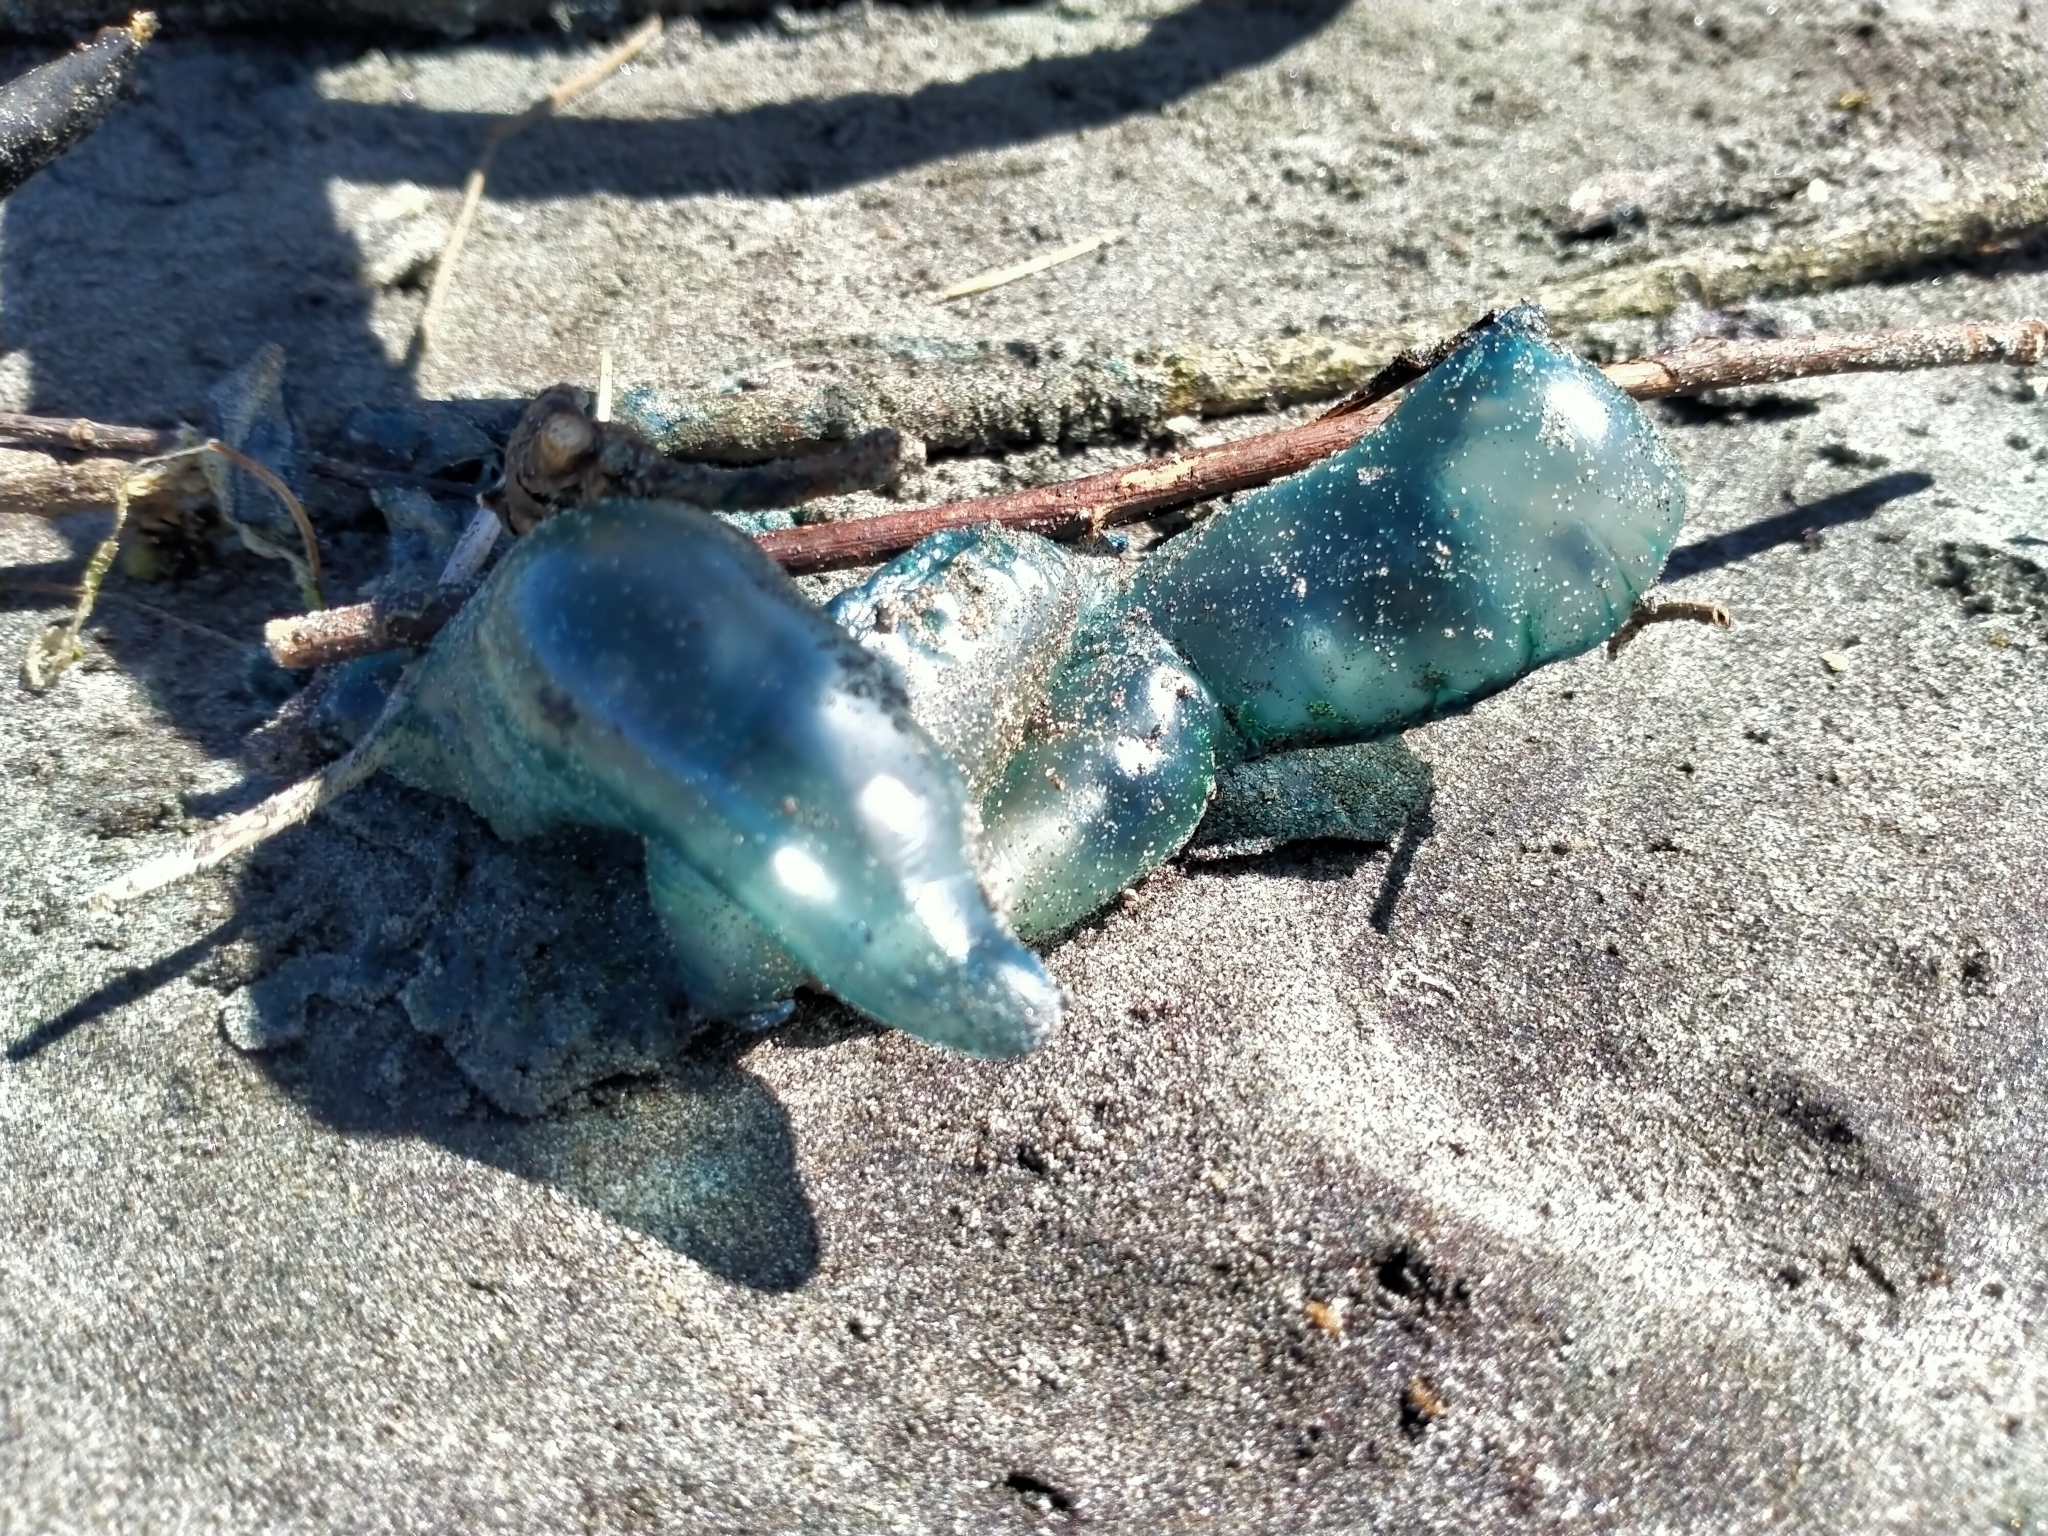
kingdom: Animalia
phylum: Cnidaria
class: Hydrozoa
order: Siphonophorae
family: Physaliidae
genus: Physalia
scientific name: Physalia physalis
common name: Portuguese man-of-war
